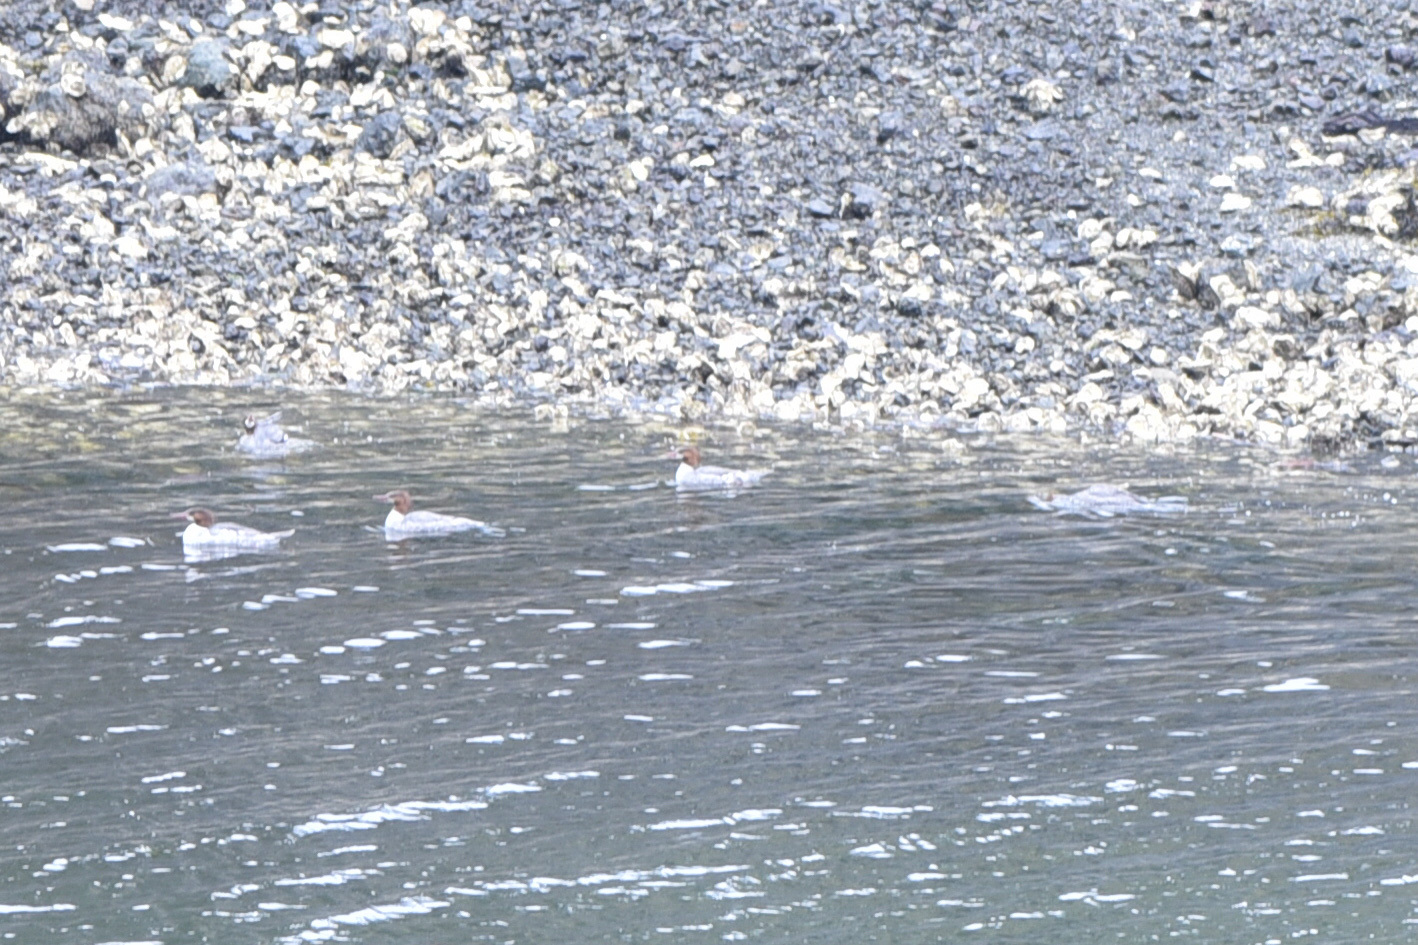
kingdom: Animalia
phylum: Chordata
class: Aves
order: Anseriformes
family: Anatidae
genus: Mergus
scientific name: Mergus merganser
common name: Common merganser
